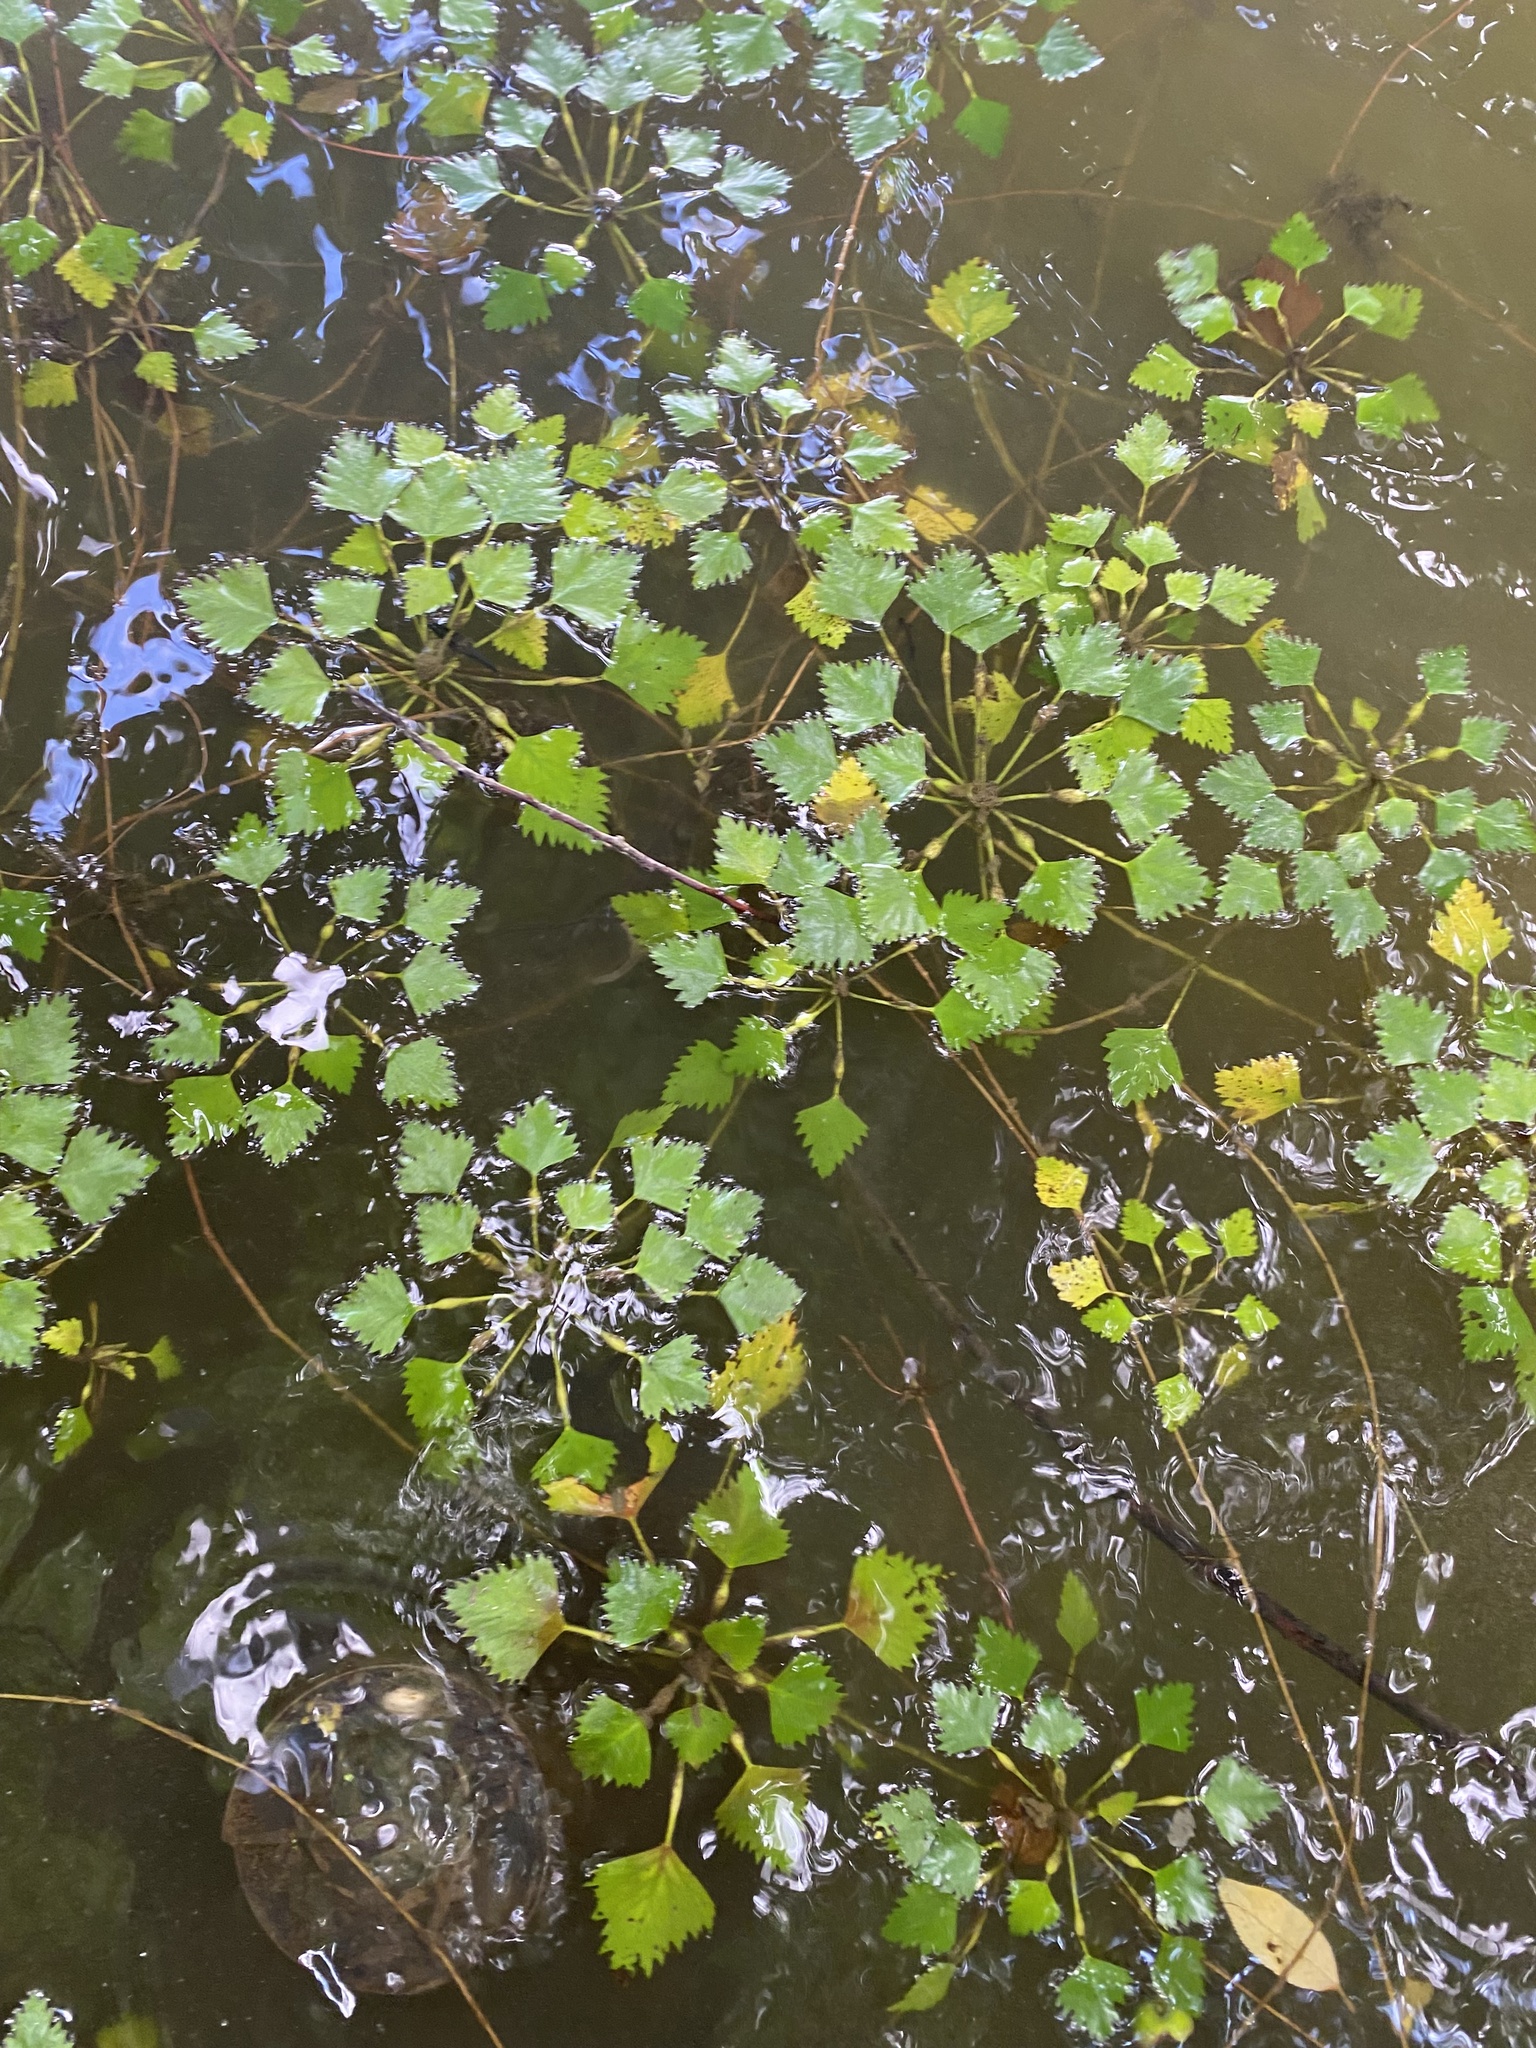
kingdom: Plantae
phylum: Tracheophyta
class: Magnoliopsida
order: Myrtales
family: Lythraceae
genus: Trapa
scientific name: Trapa natans
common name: Water chestnut
